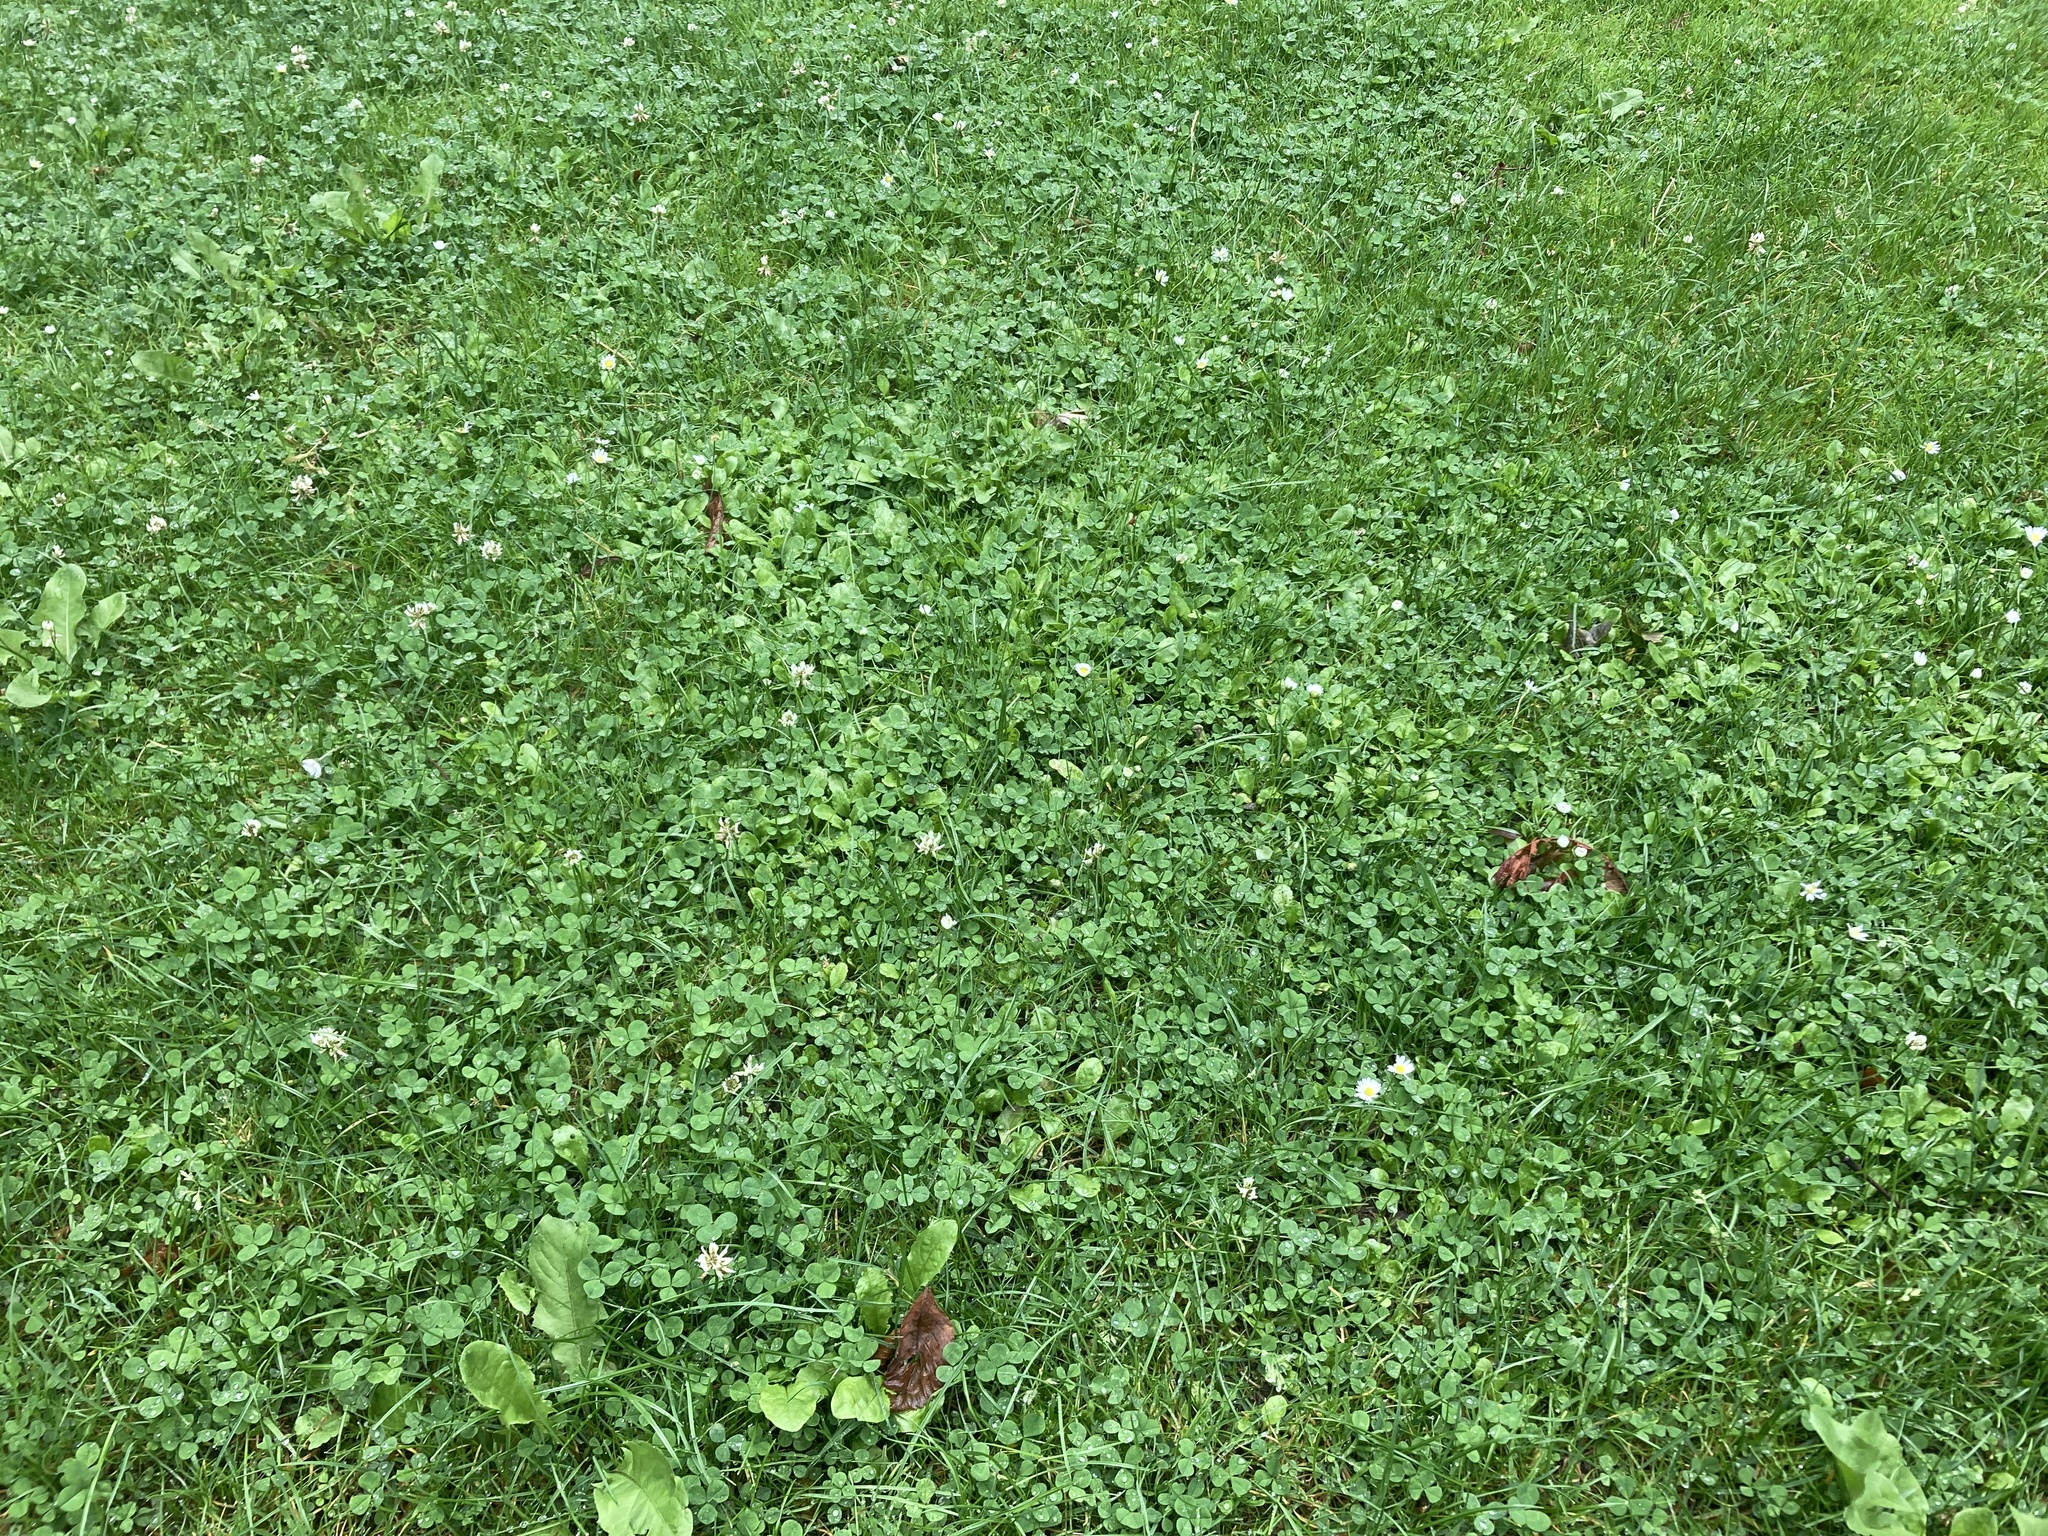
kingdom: Plantae
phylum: Tracheophyta
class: Magnoliopsida
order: Asterales
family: Asteraceae
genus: Bellis
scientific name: Bellis perennis
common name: Lawndaisy
